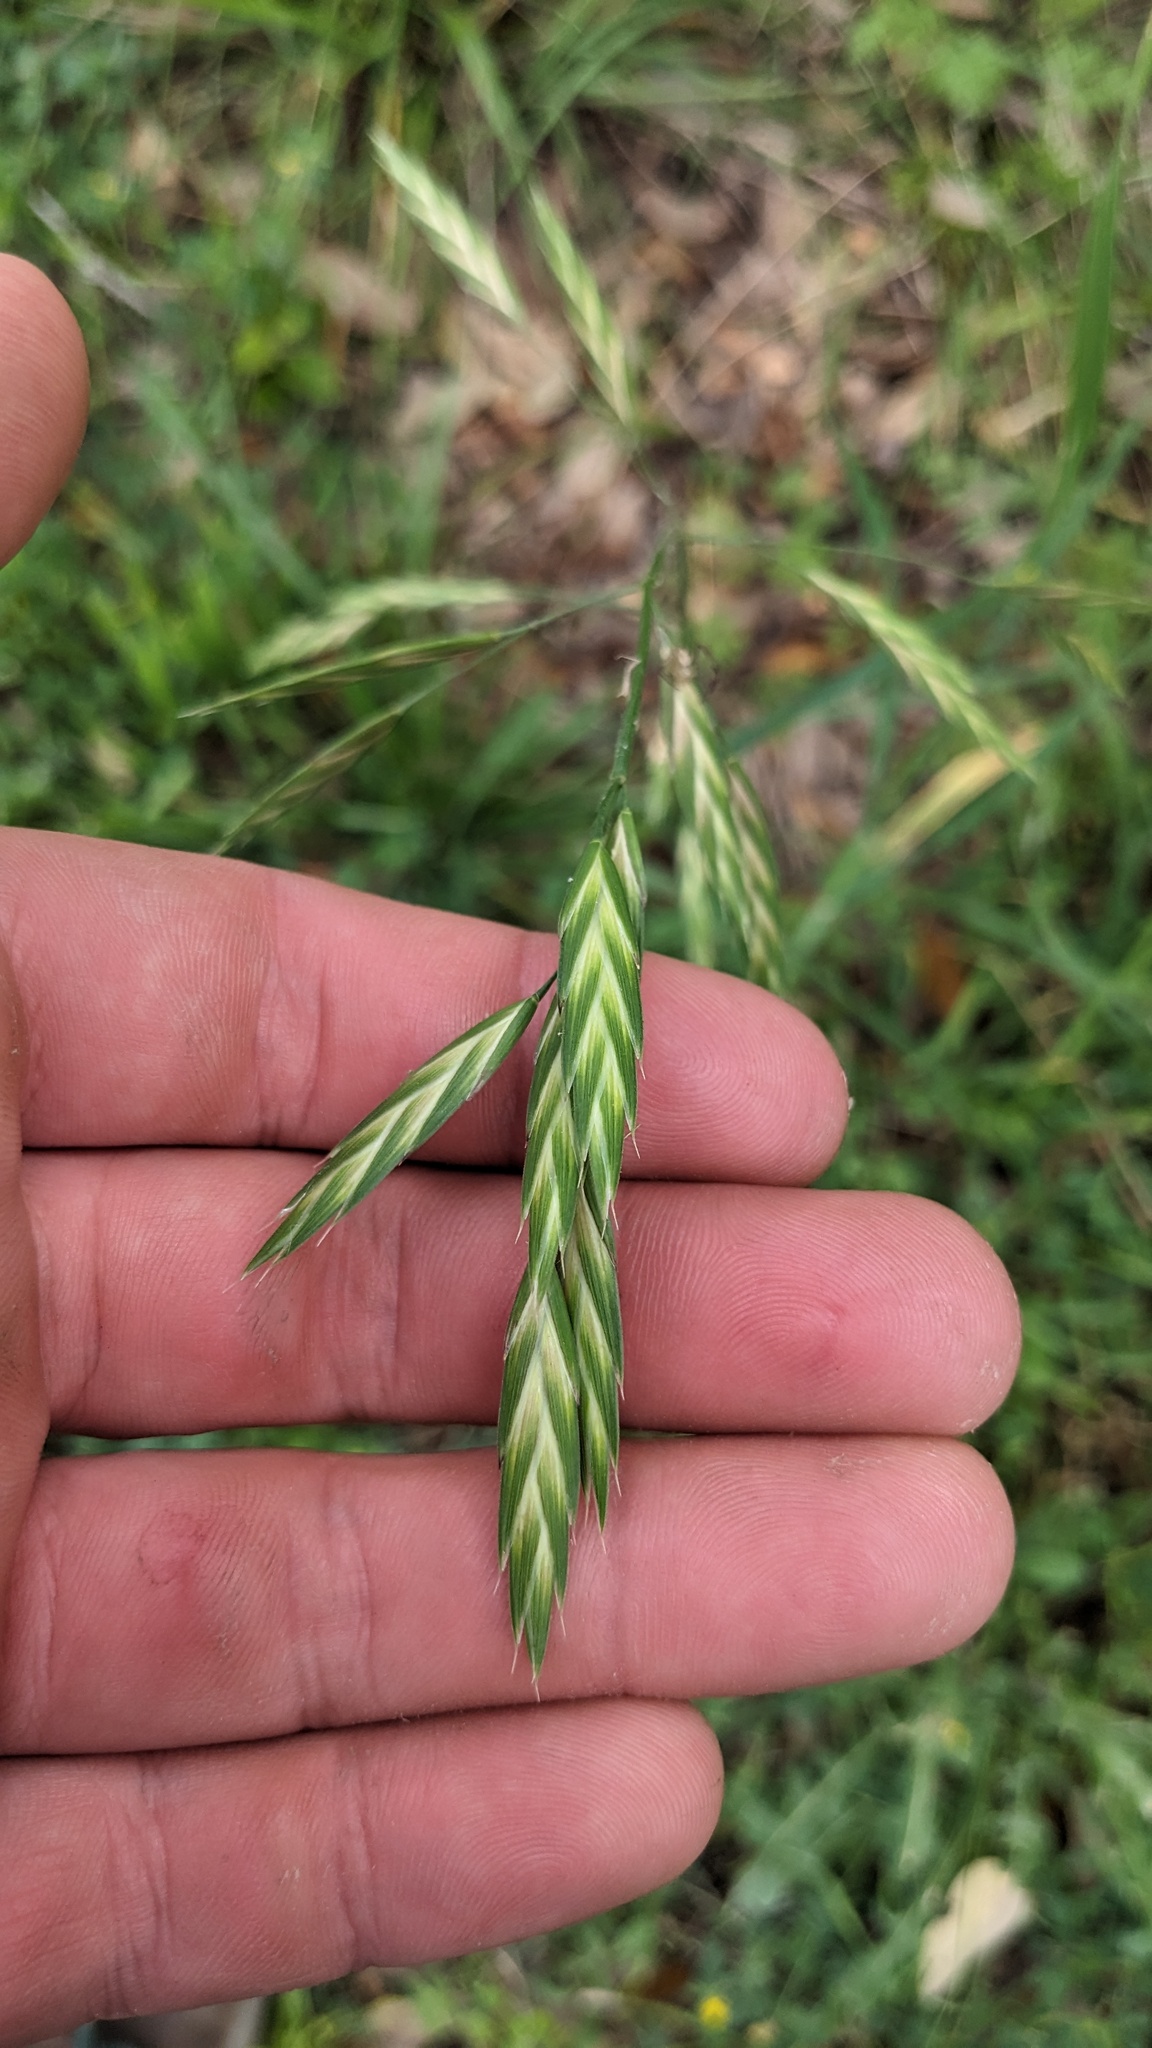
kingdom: Plantae
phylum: Tracheophyta
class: Liliopsida
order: Poales
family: Poaceae
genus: Bromus
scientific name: Bromus catharticus
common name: Rescuegrass
